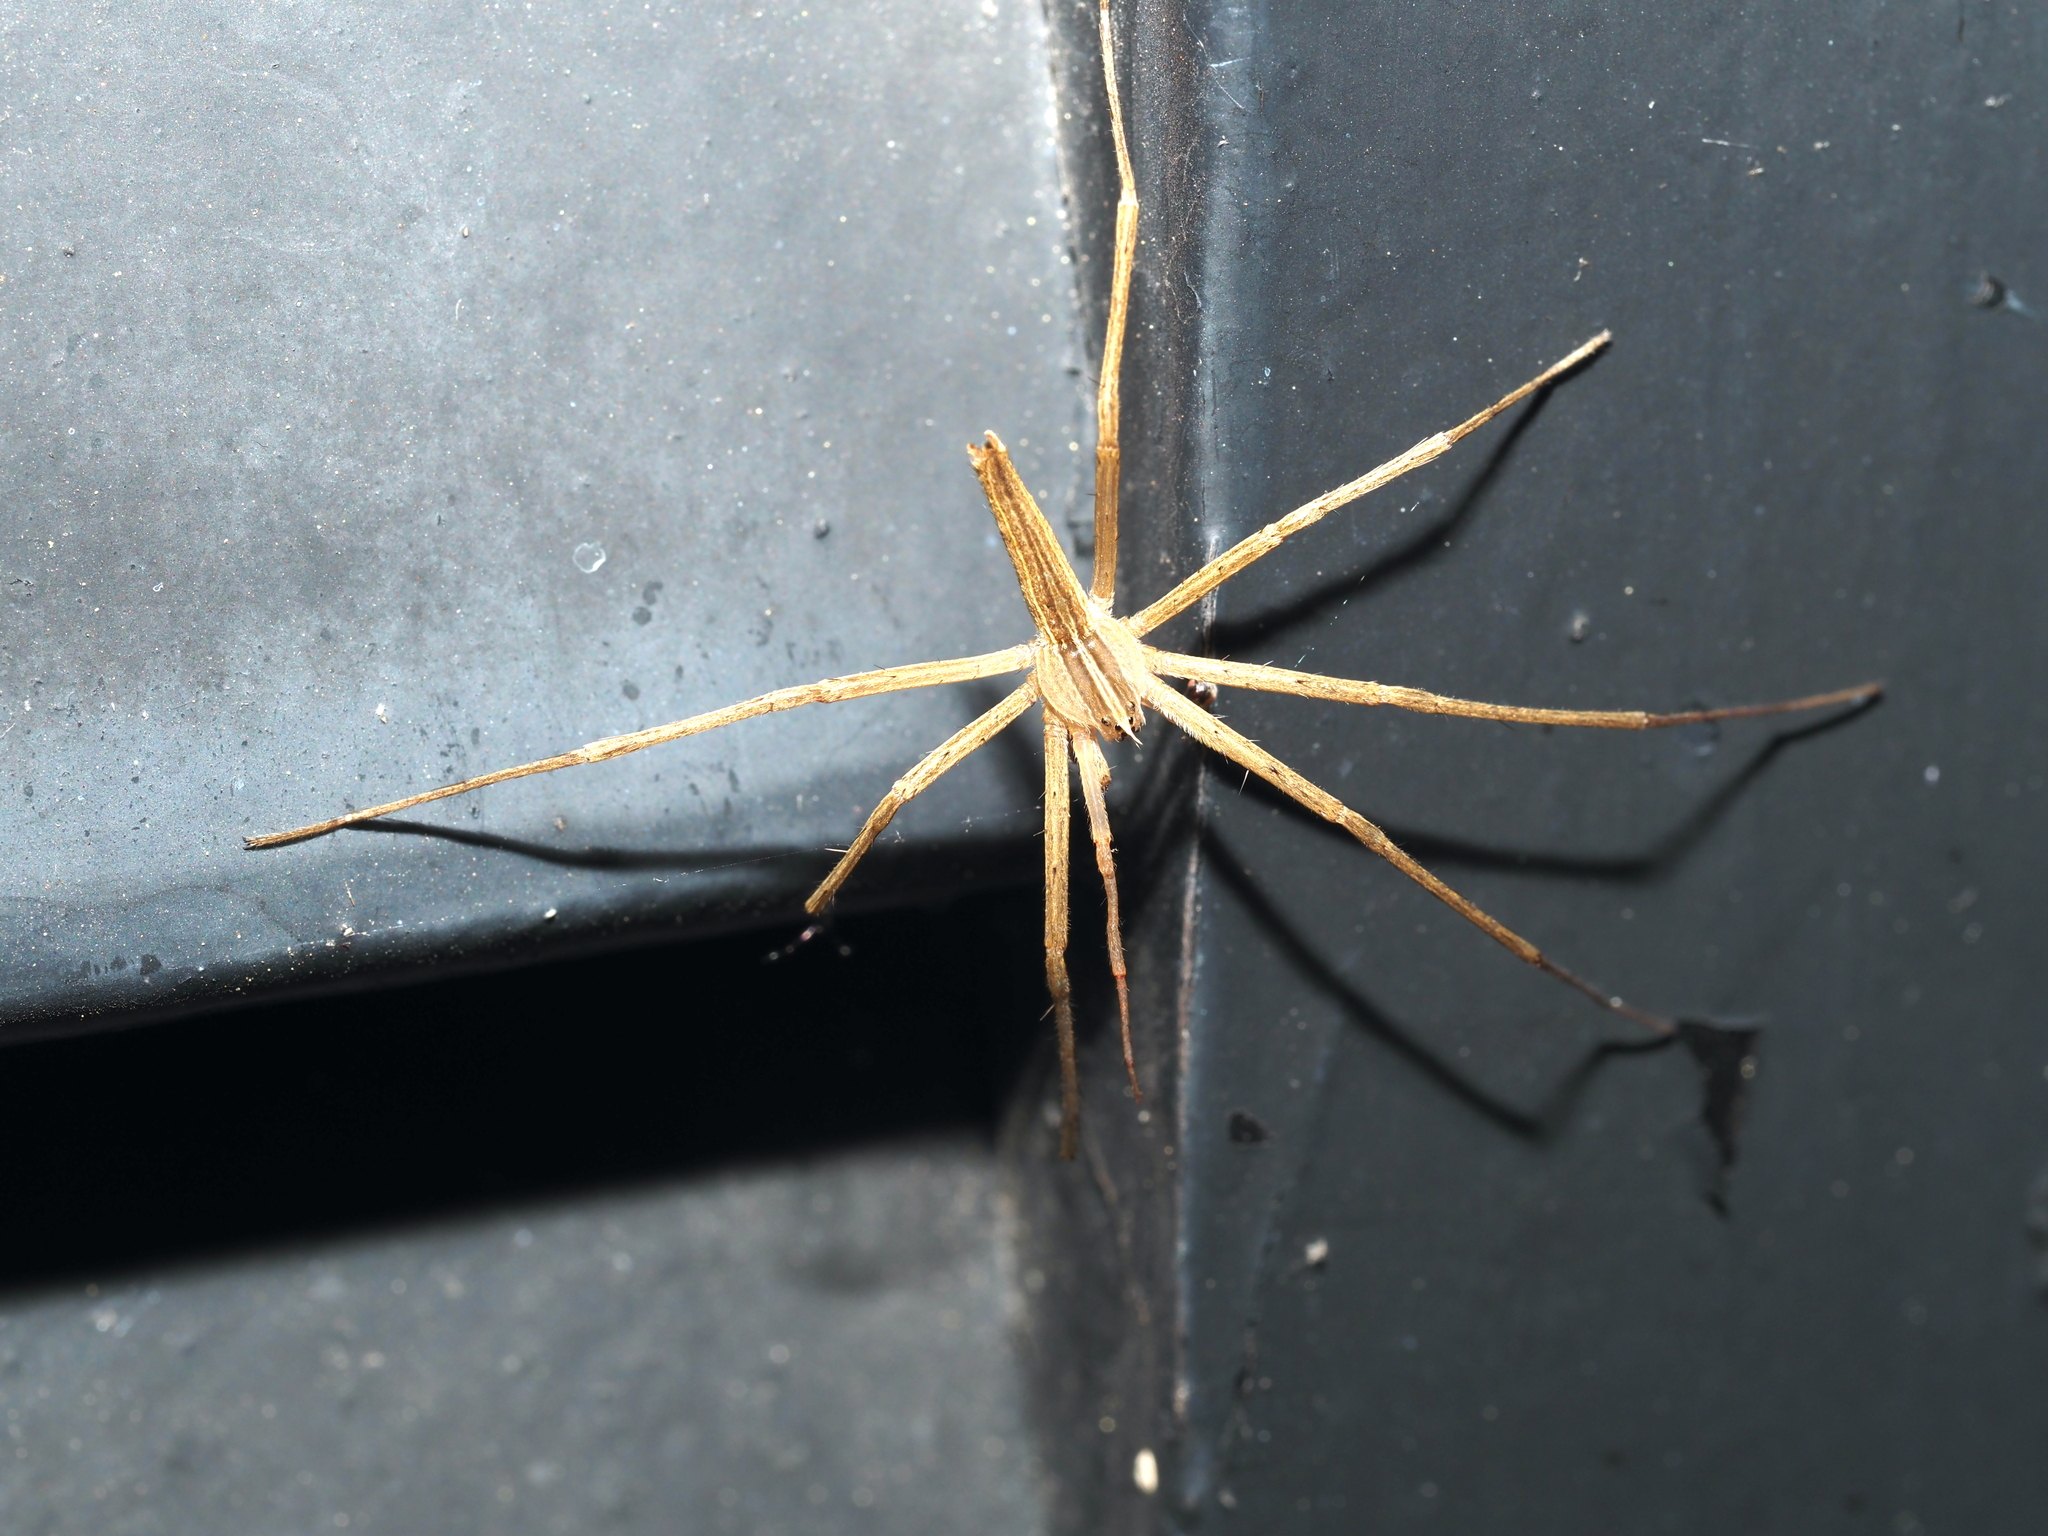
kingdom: Animalia
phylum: Arthropoda
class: Arachnida
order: Araneae
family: Pisauridae
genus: Pisaurina
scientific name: Pisaurina dubia
